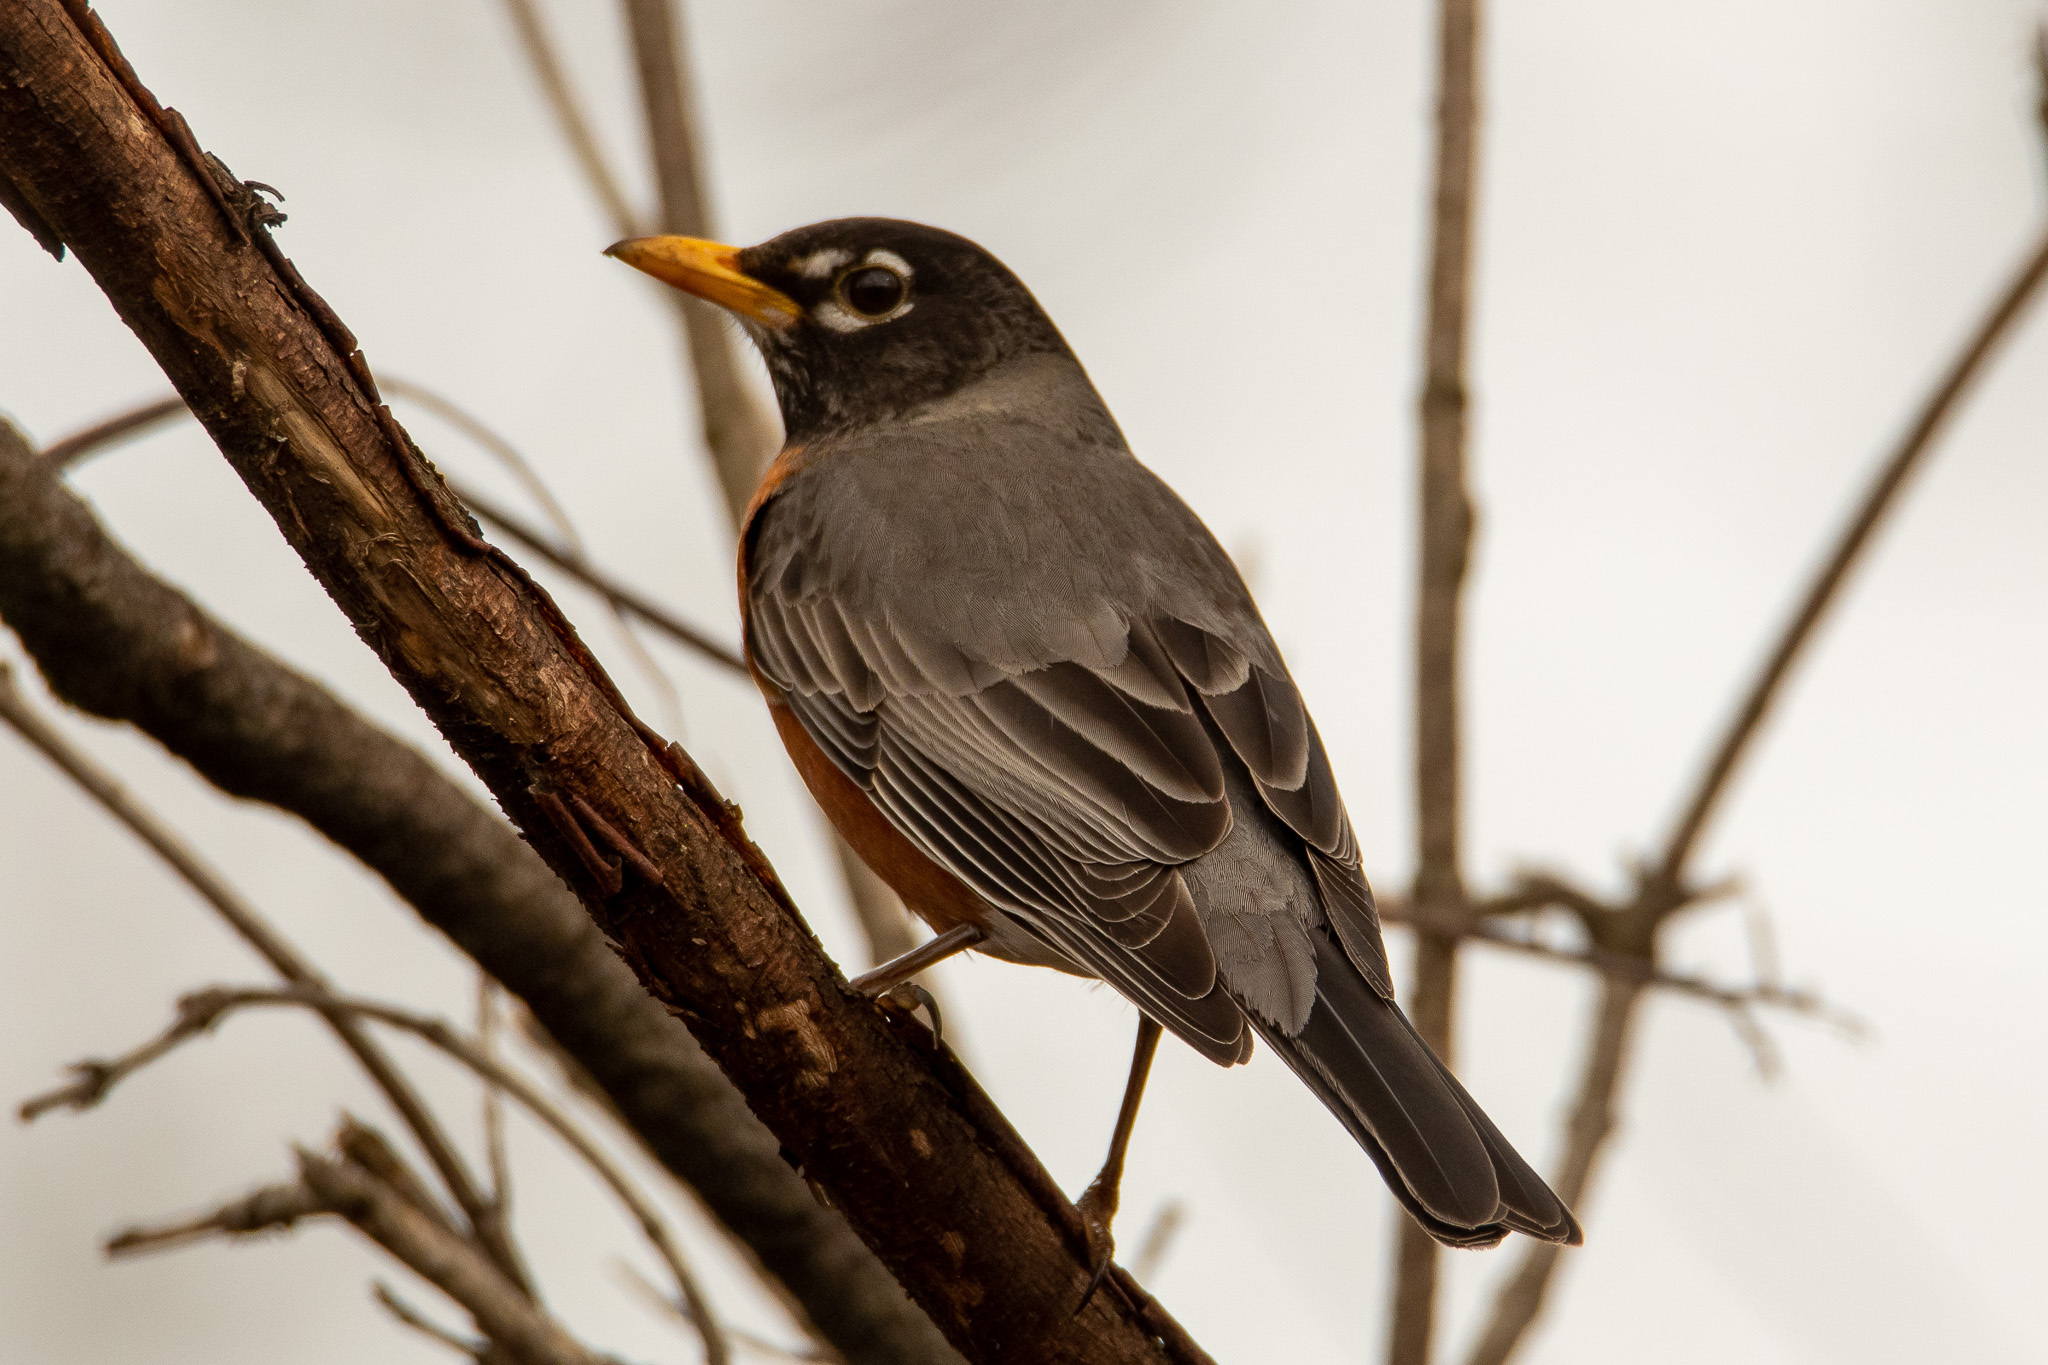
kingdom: Animalia
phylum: Chordata
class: Aves
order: Passeriformes
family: Turdidae
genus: Turdus
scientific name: Turdus migratorius
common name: American robin
